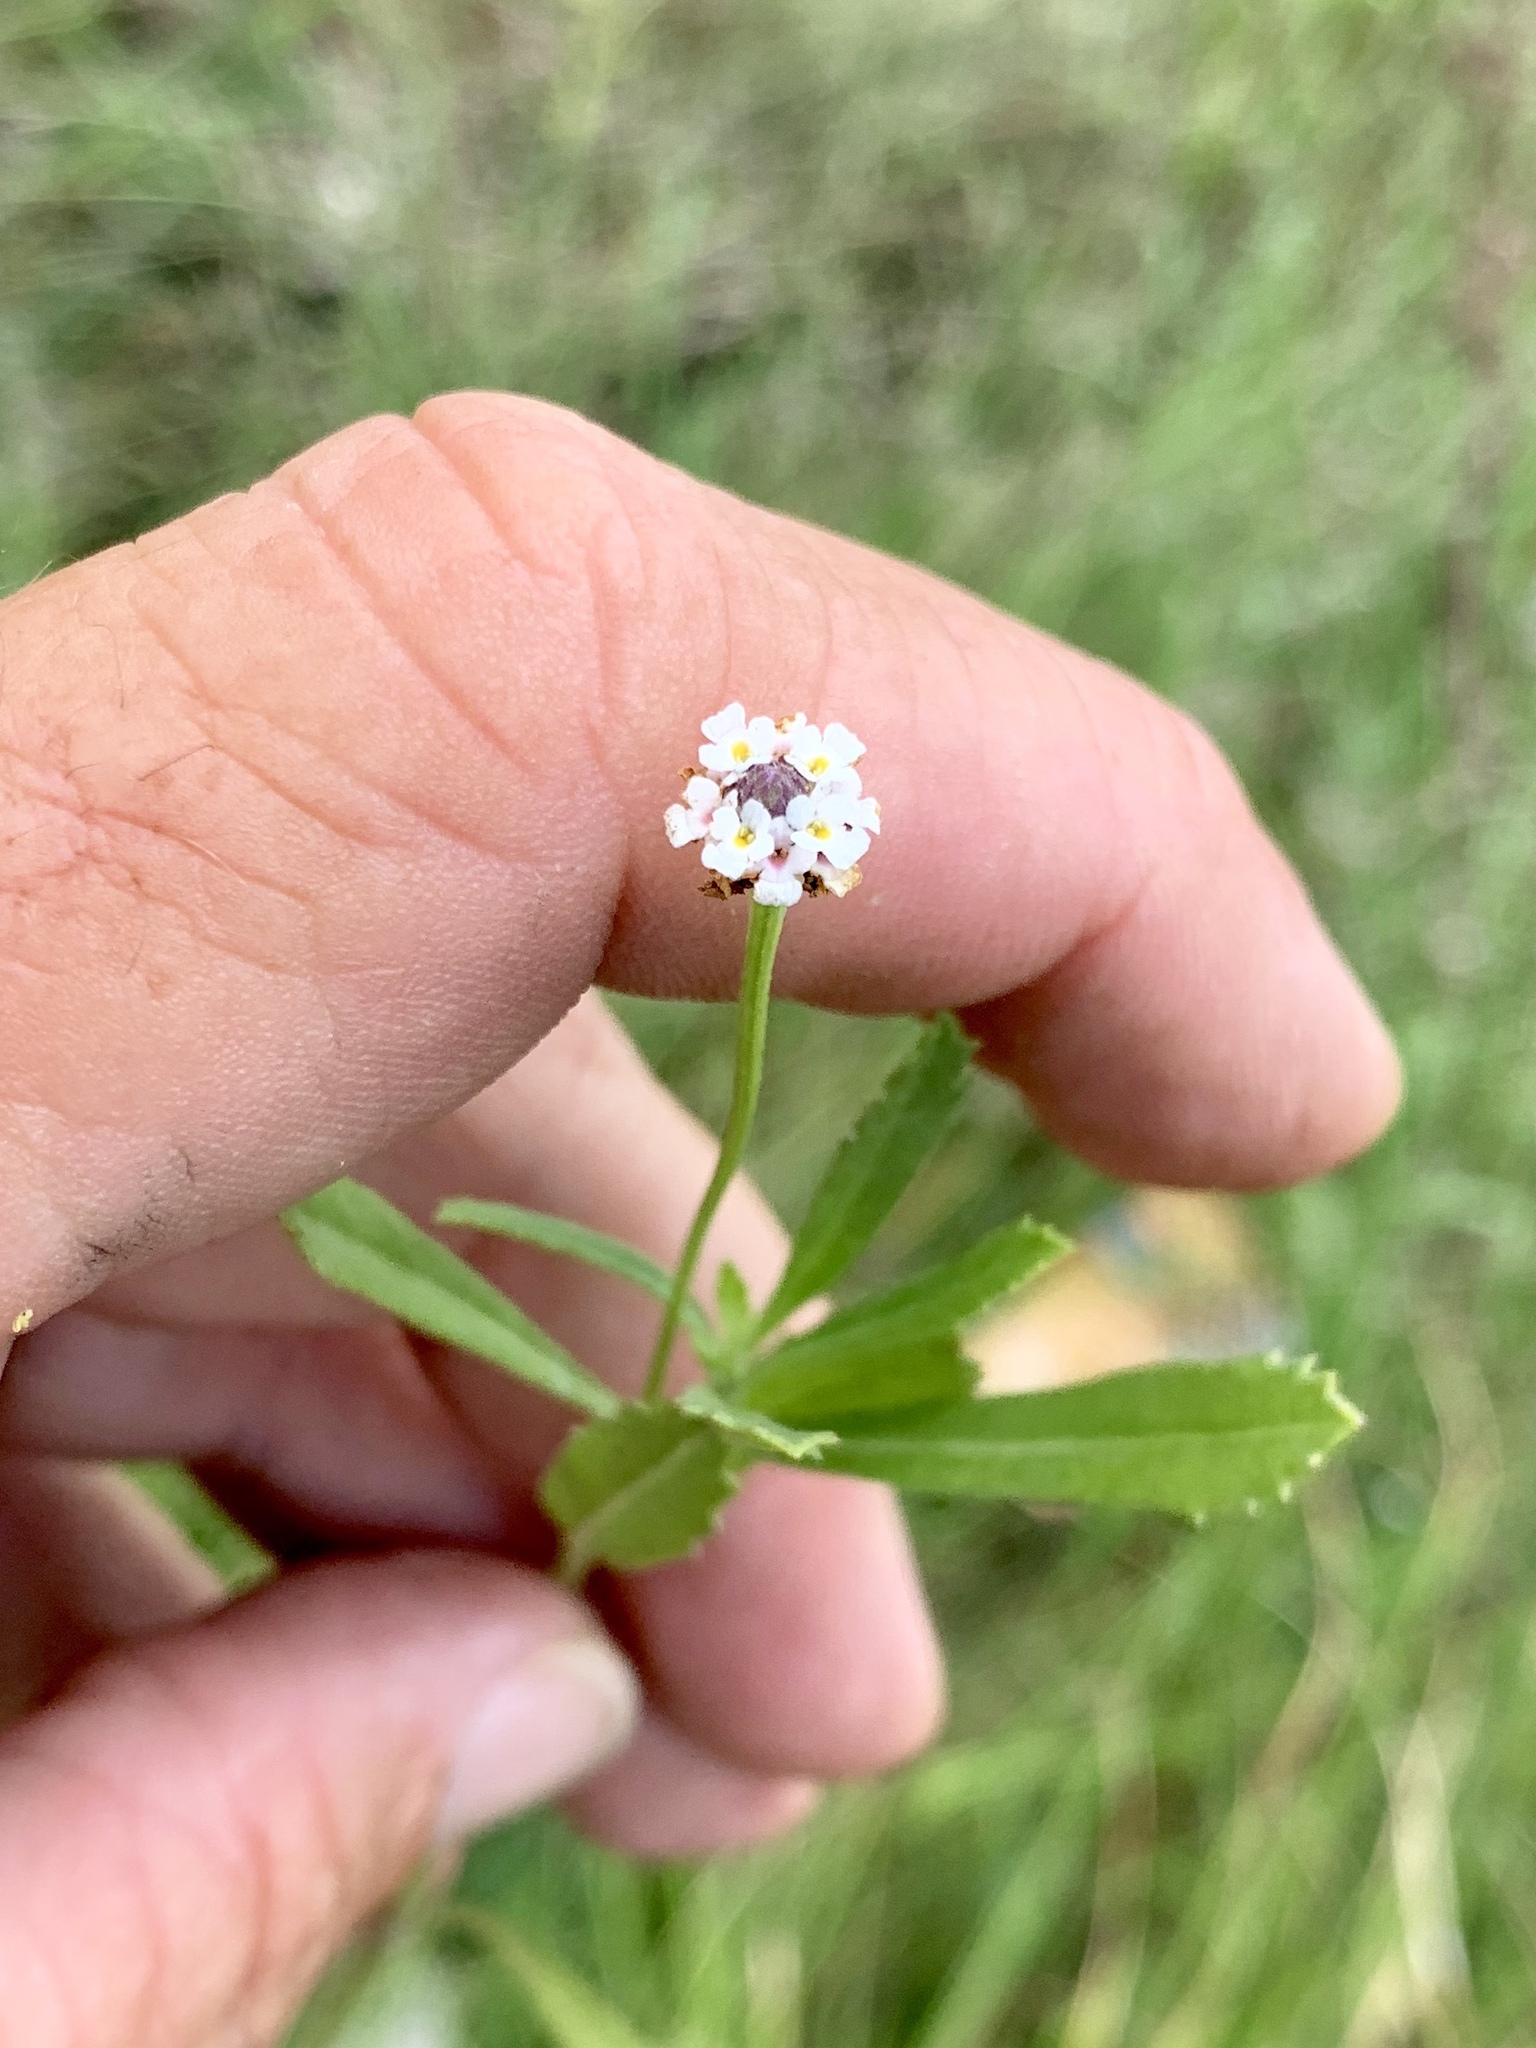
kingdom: Plantae
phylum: Tracheophyta
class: Magnoliopsida
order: Lamiales
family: Verbenaceae
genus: Phyla
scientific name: Phyla nodiflora
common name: Frogfruit
